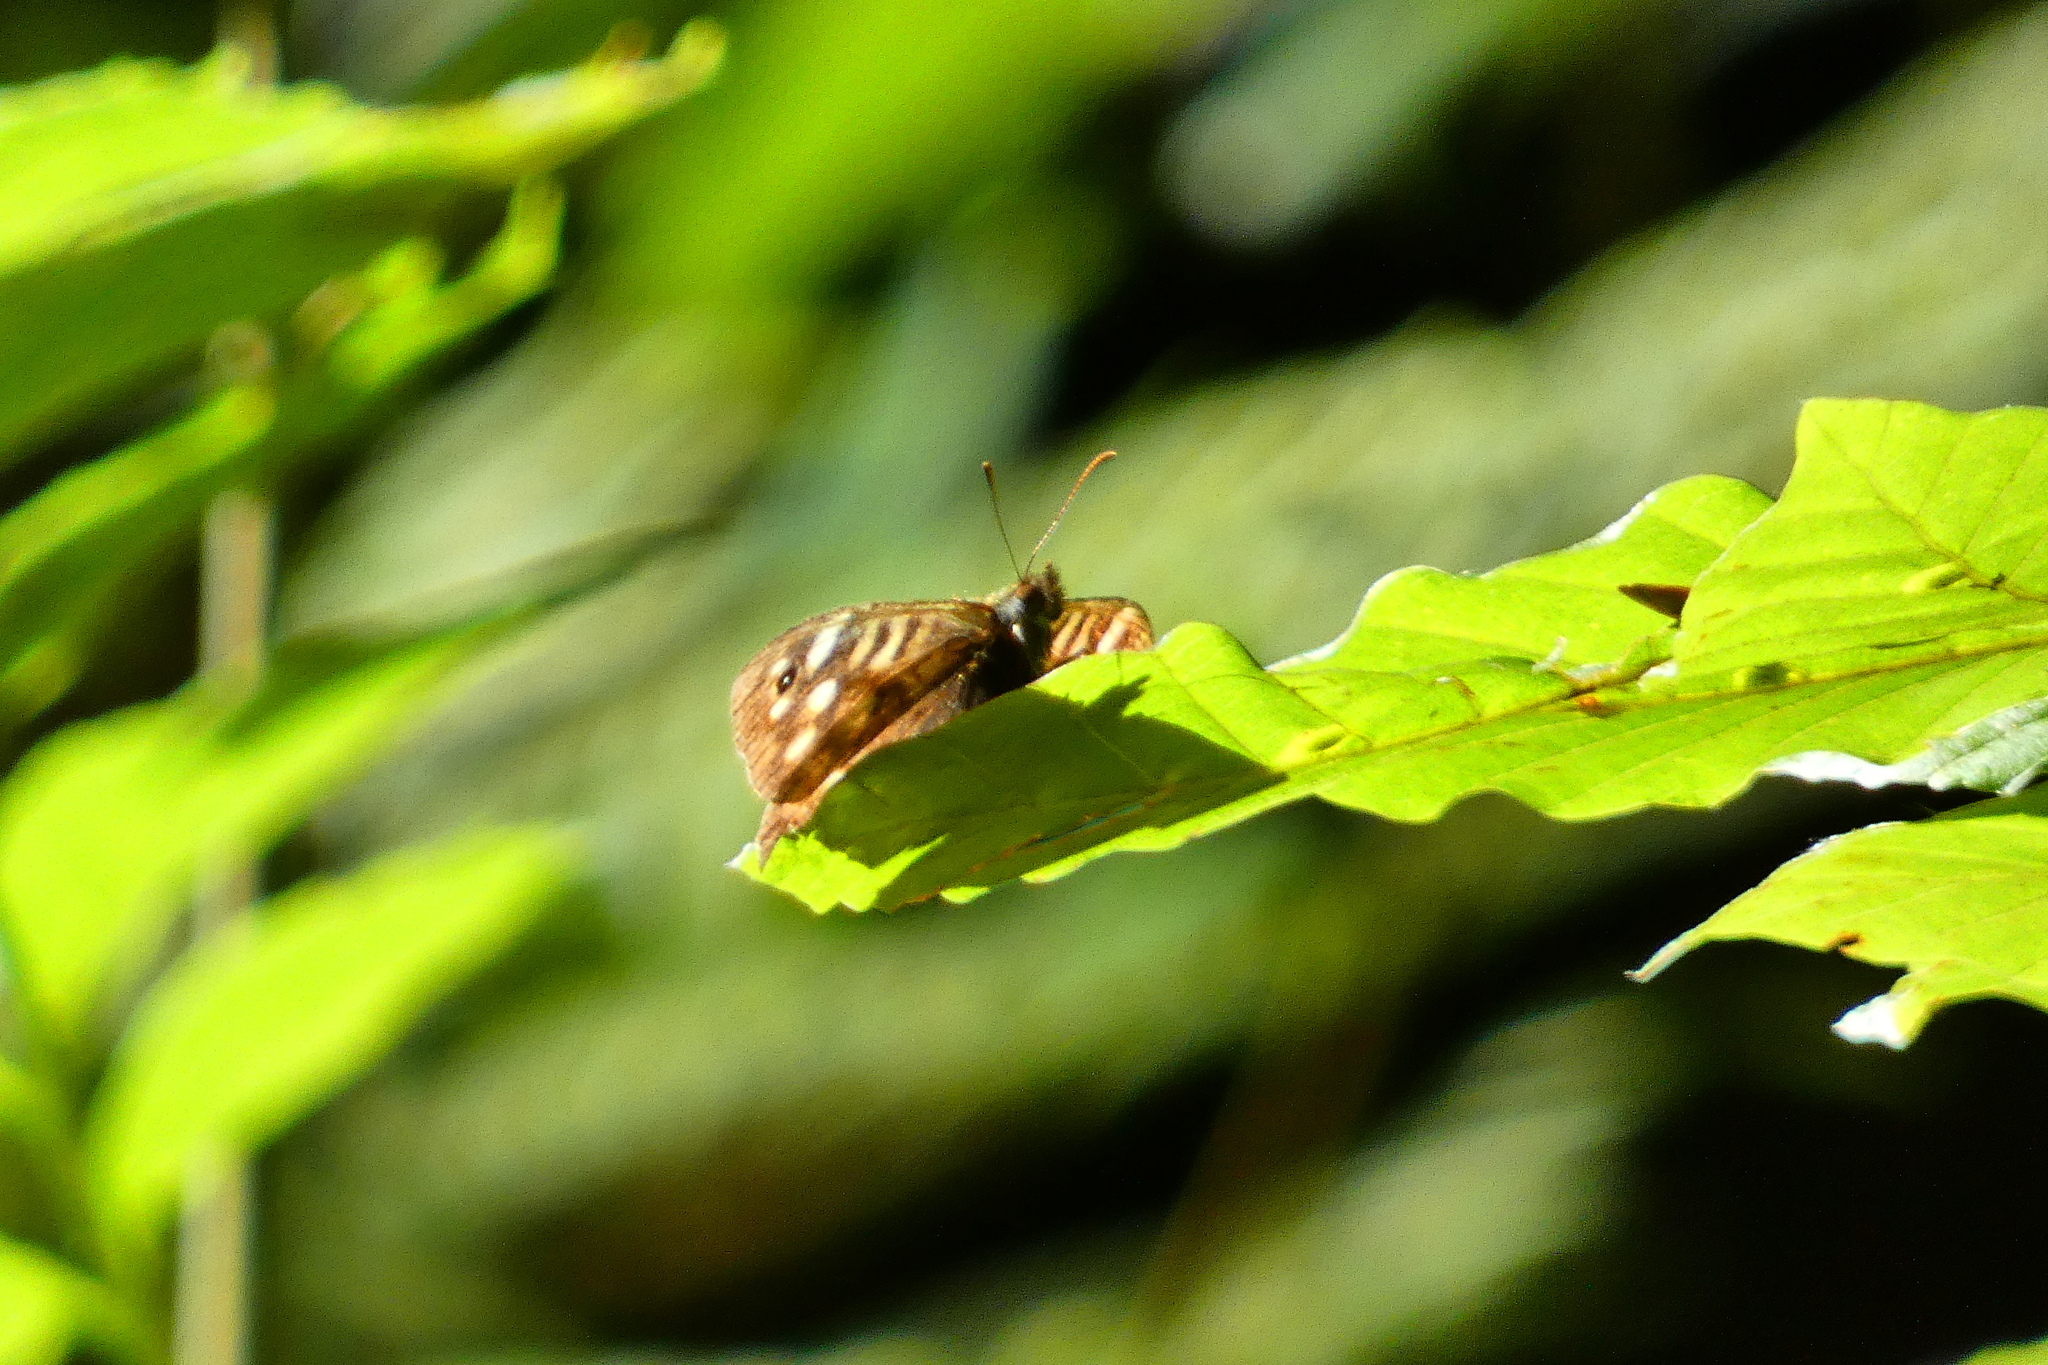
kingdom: Animalia
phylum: Arthropoda
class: Insecta
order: Lepidoptera
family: Nymphalidae
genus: Pararge
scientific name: Pararge aegeria
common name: Speckled wood
